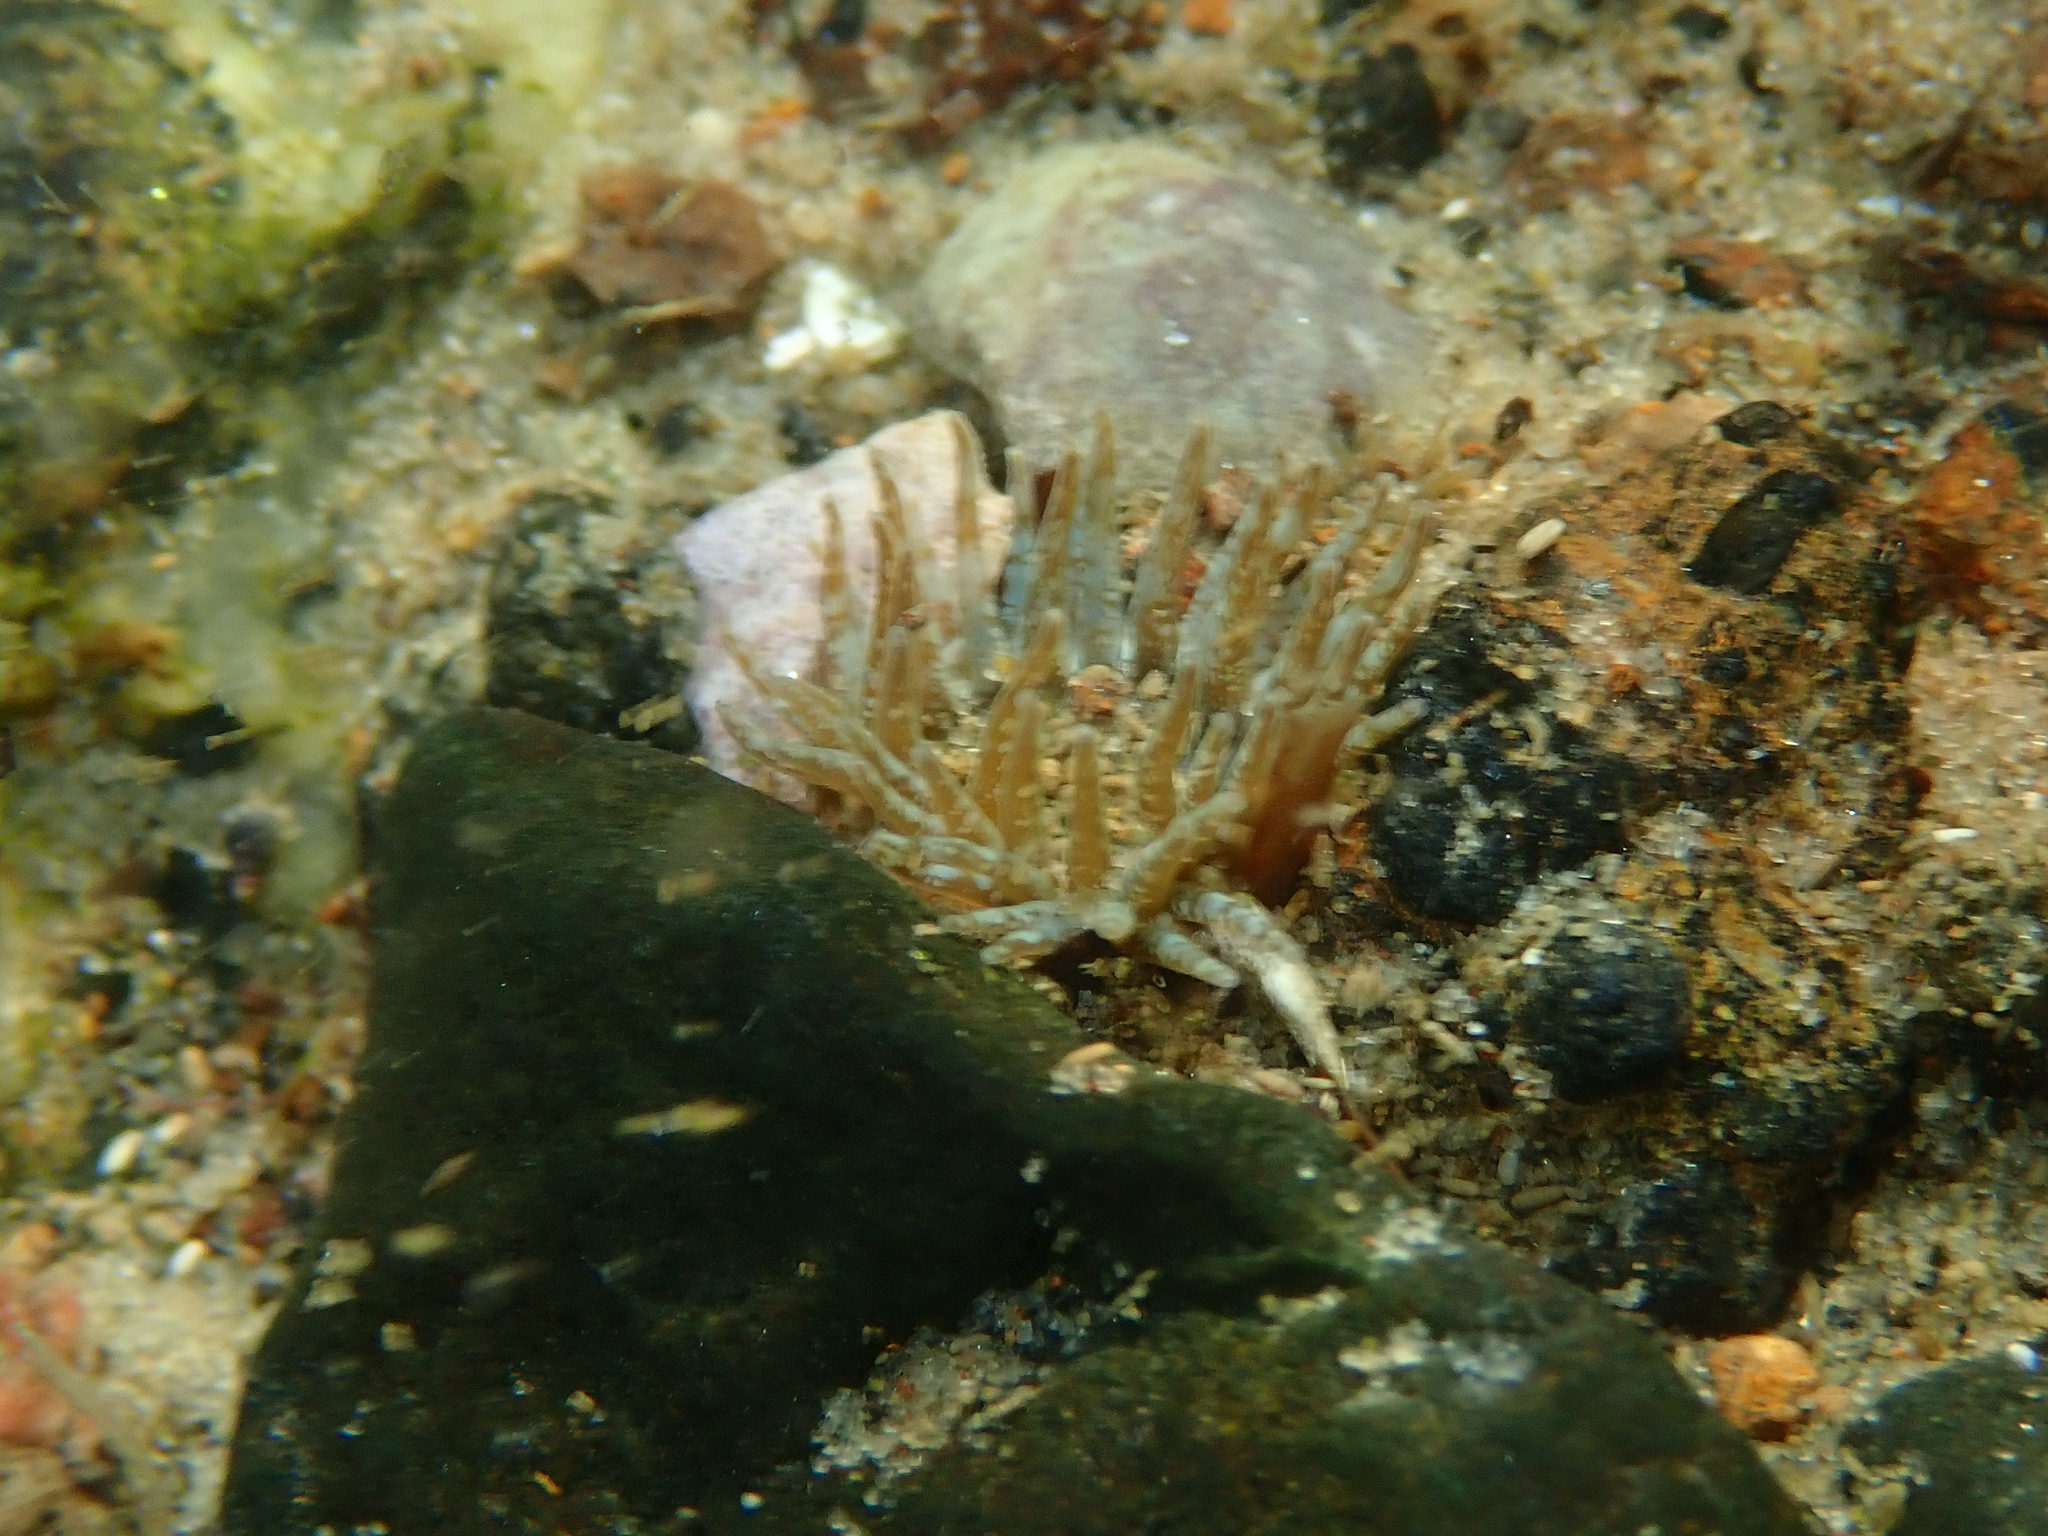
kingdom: Animalia
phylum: Cnidaria
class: Anthozoa
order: Actiniaria
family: Actiniidae
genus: Anthopleura
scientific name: Anthopleura hermaphroditica
